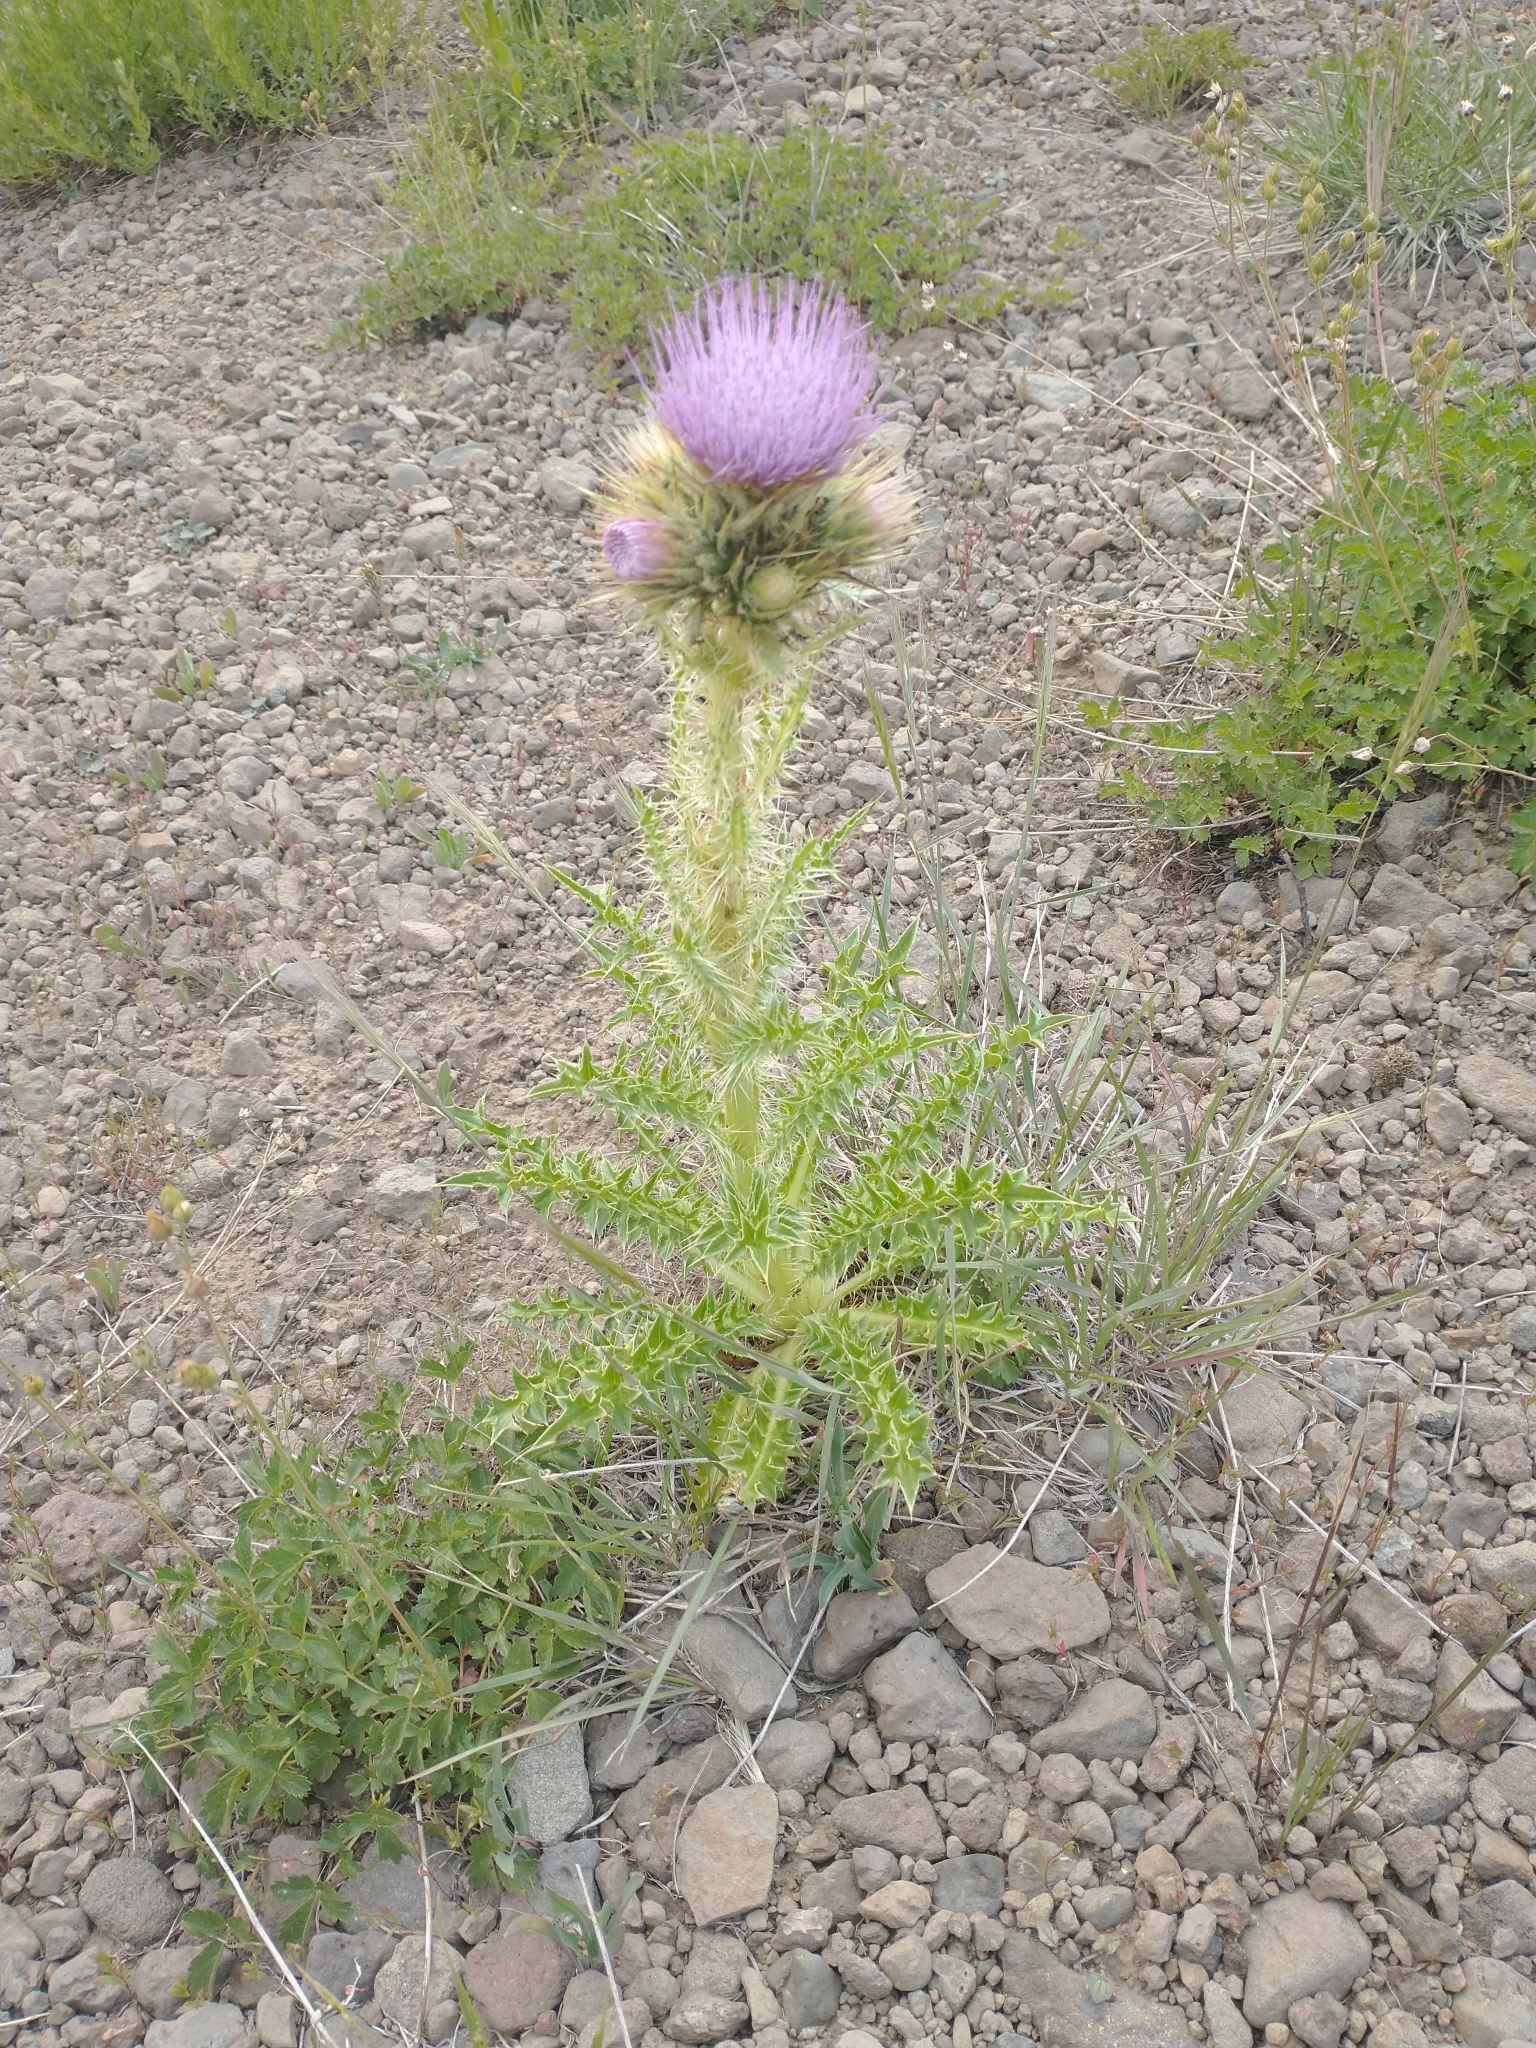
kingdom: Plantae
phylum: Tracheophyta
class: Magnoliopsida
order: Asterales
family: Asteraceae
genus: Cirsium
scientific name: Cirsium peckii
